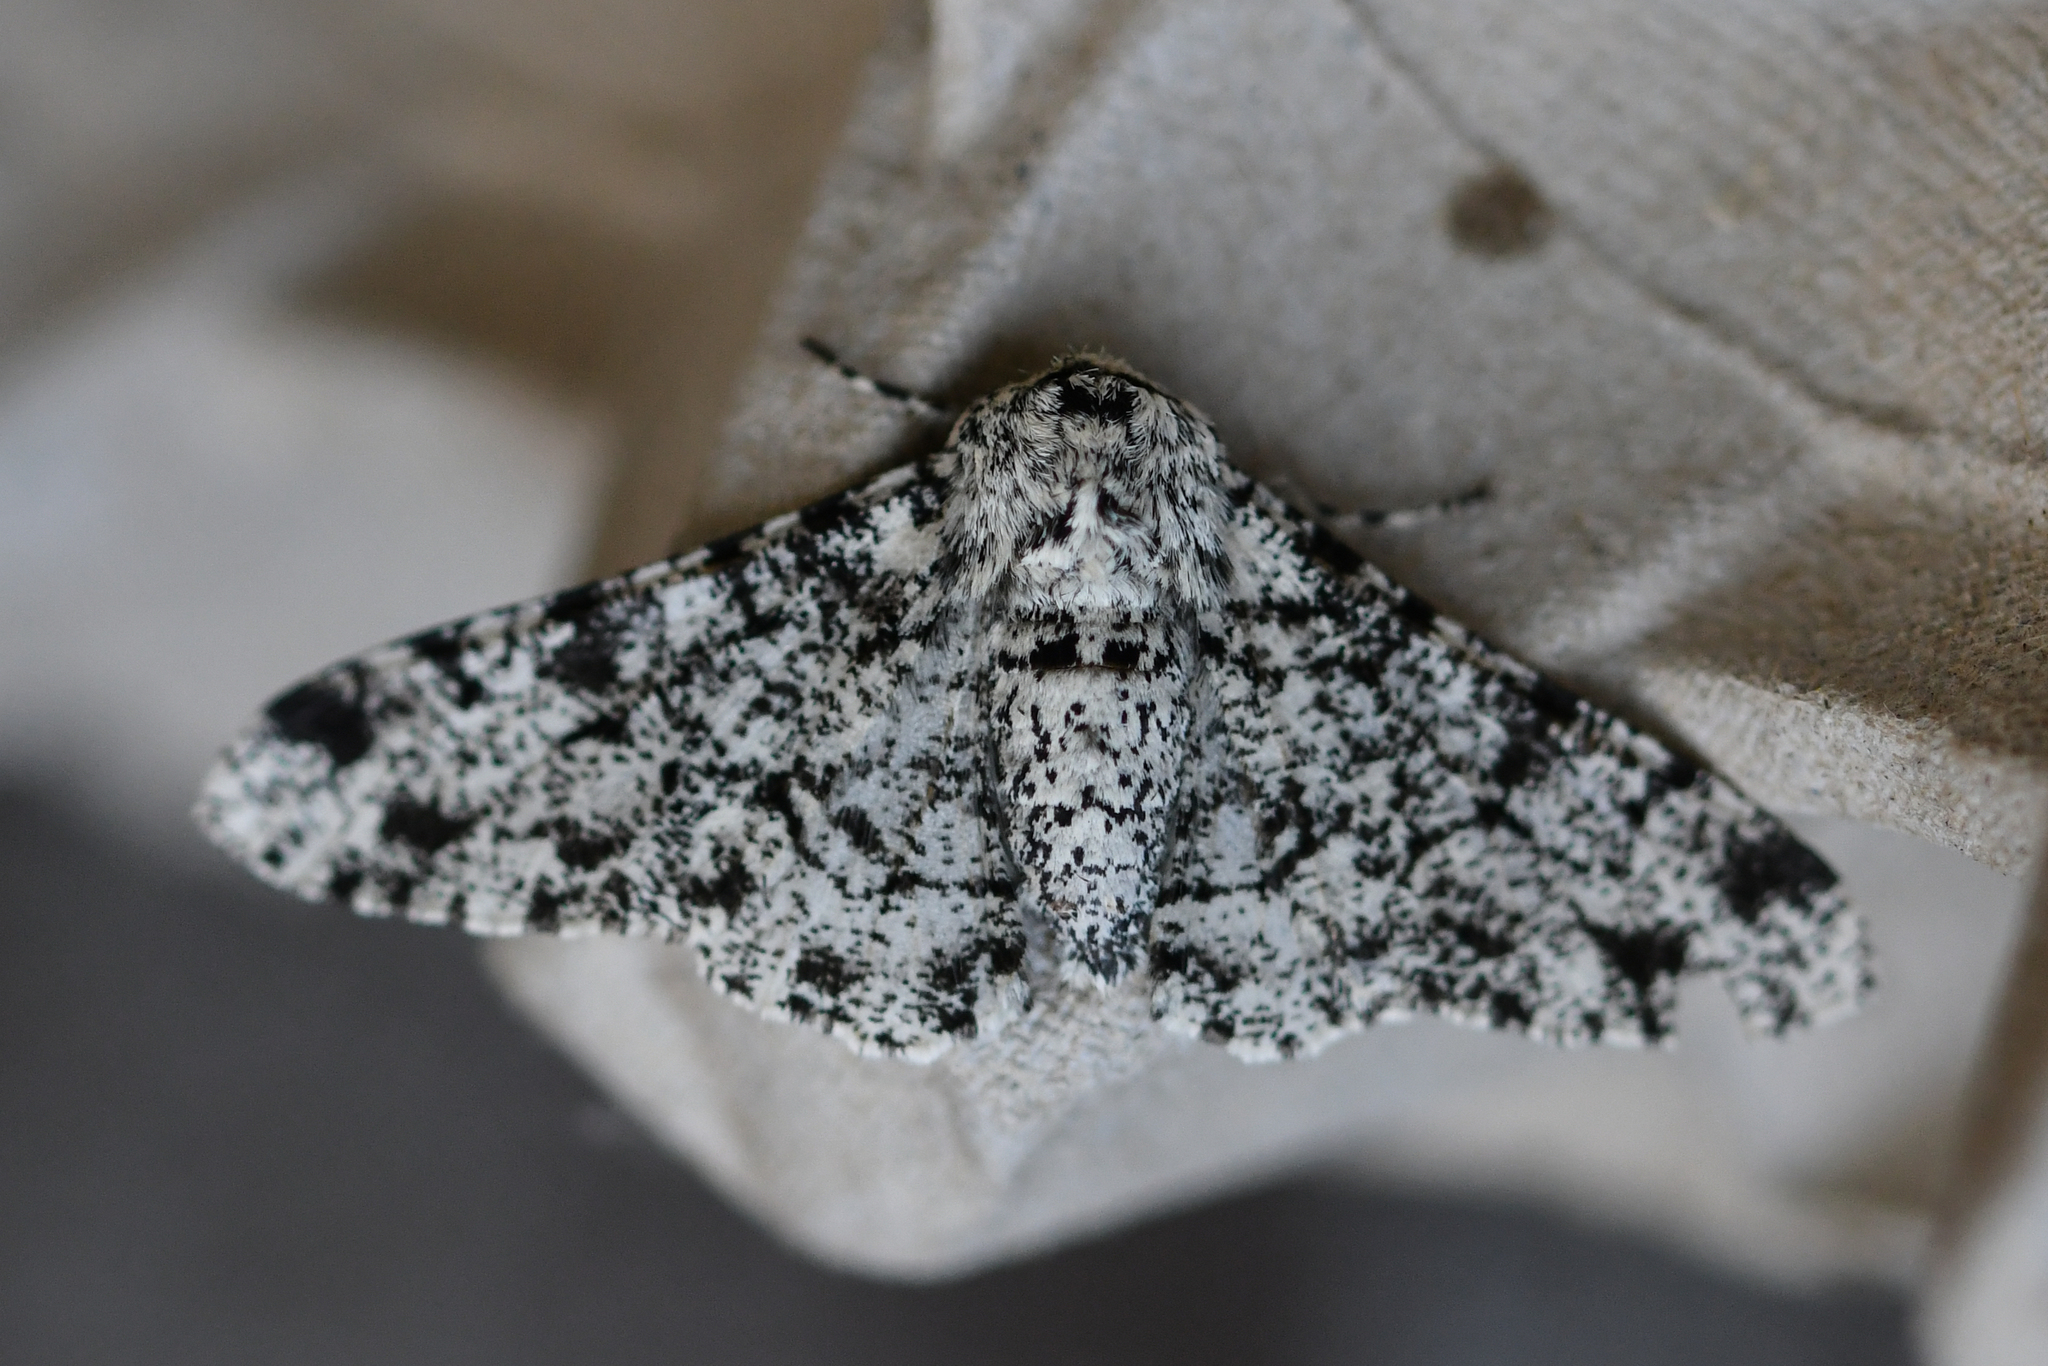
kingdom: Animalia
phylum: Arthropoda
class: Insecta
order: Lepidoptera
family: Geometridae
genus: Biston
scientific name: Biston betularia
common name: Peppered moth
